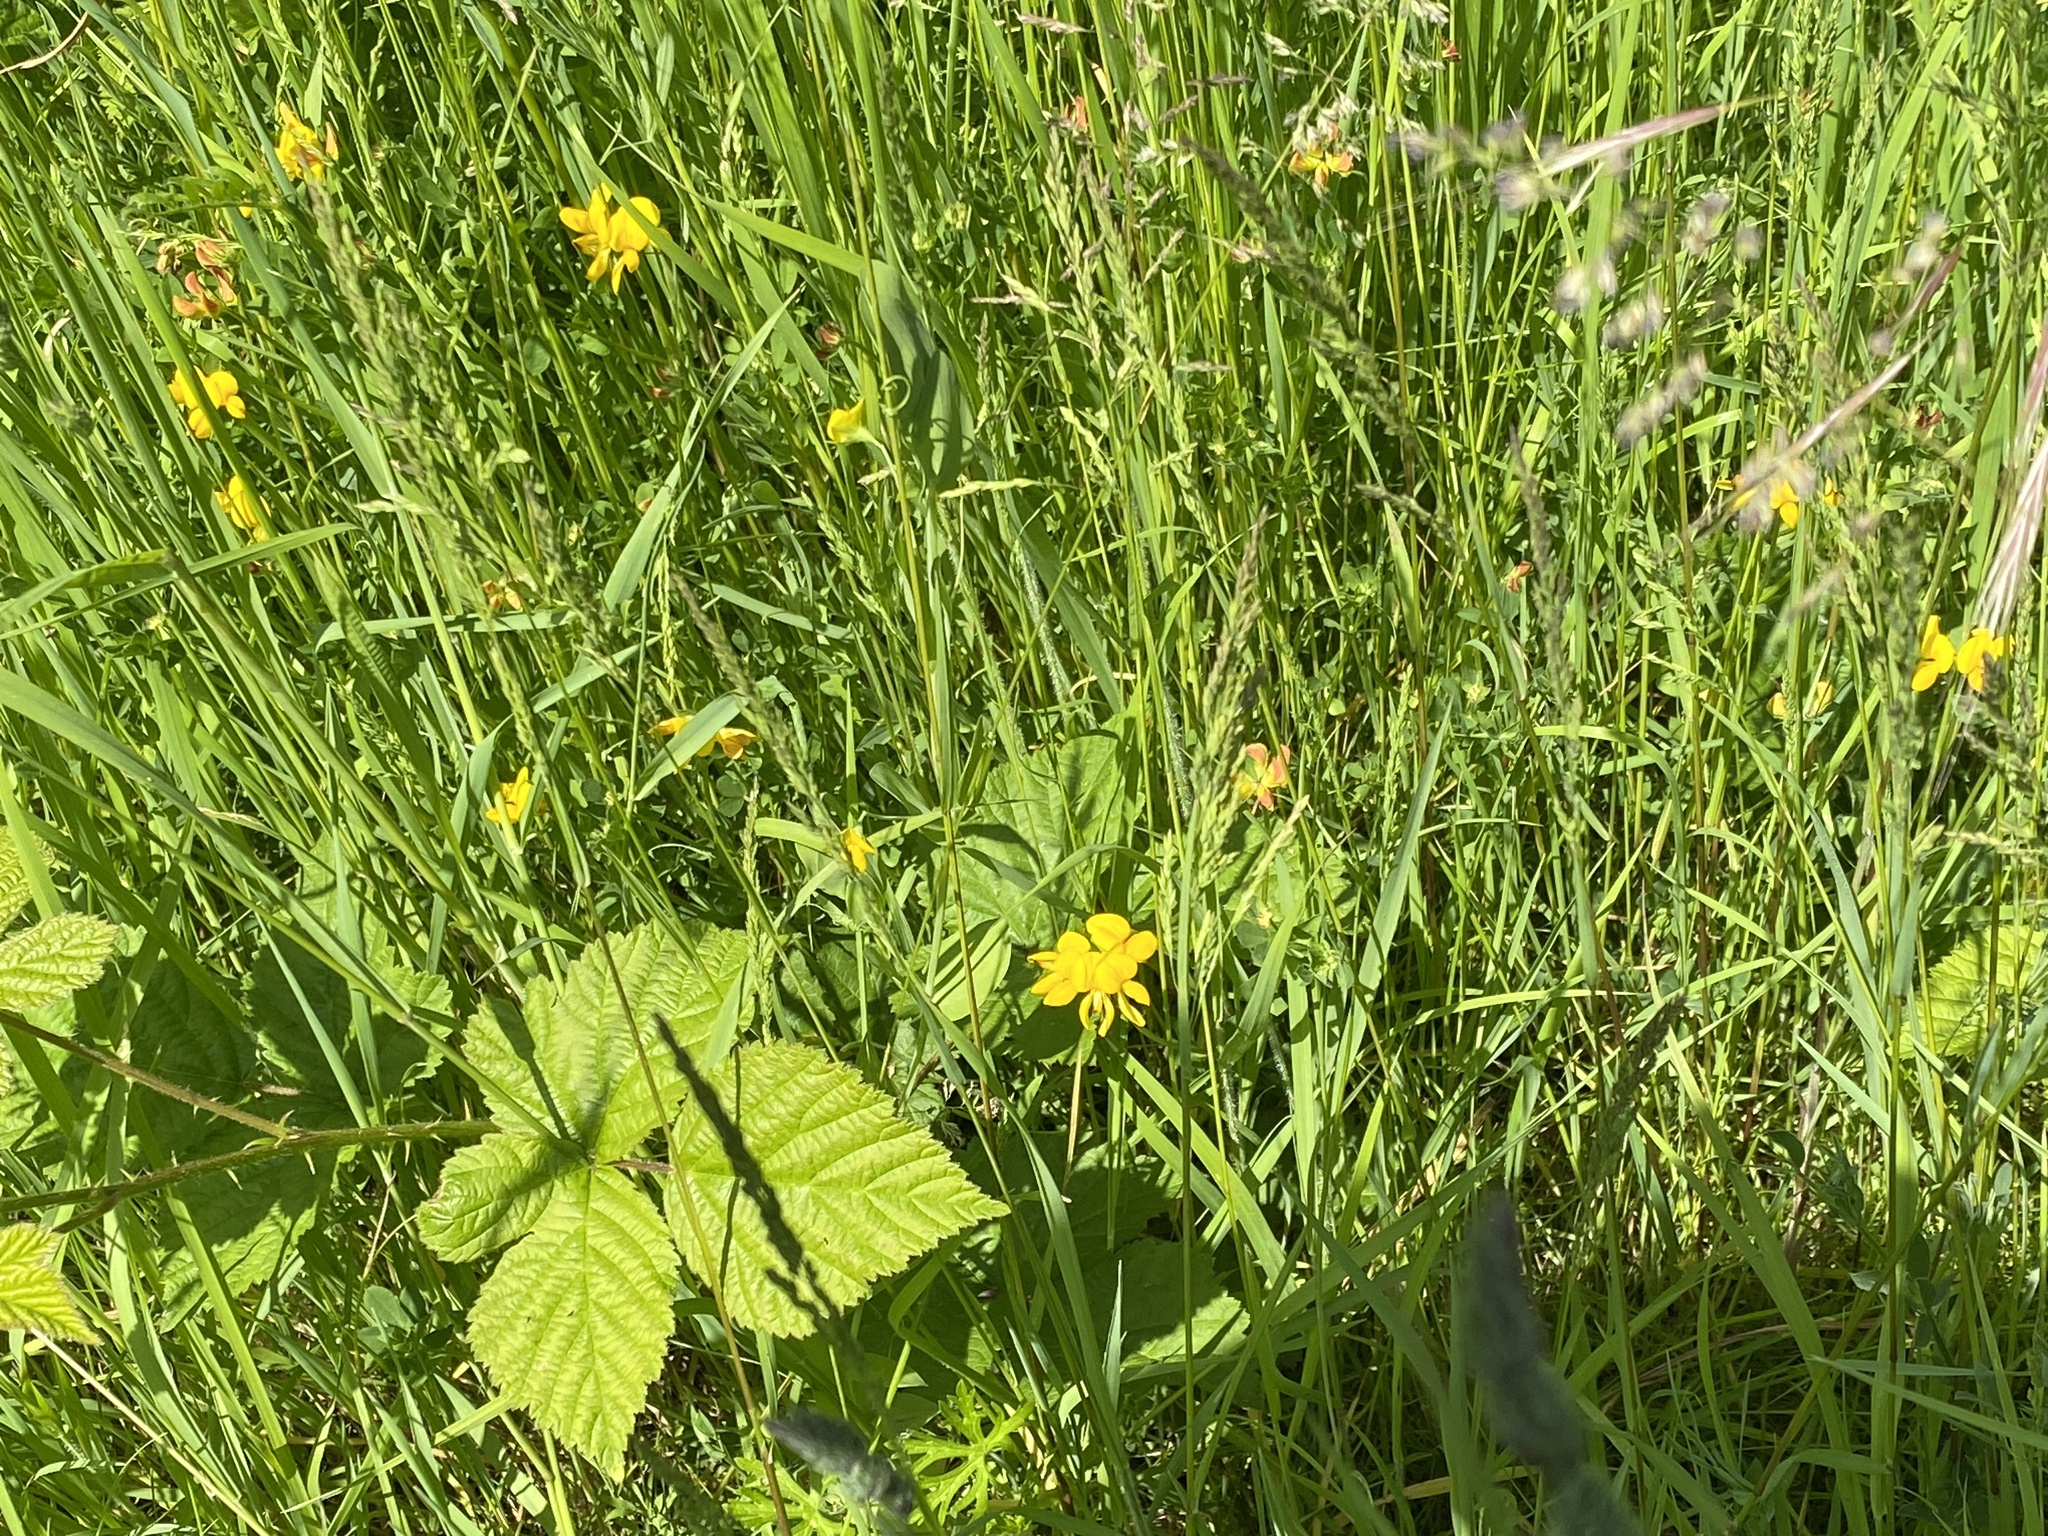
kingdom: Plantae
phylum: Tracheophyta
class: Magnoliopsida
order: Fabales
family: Fabaceae
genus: Lotus
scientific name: Lotus corniculatus
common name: Common bird's-foot-trefoil
